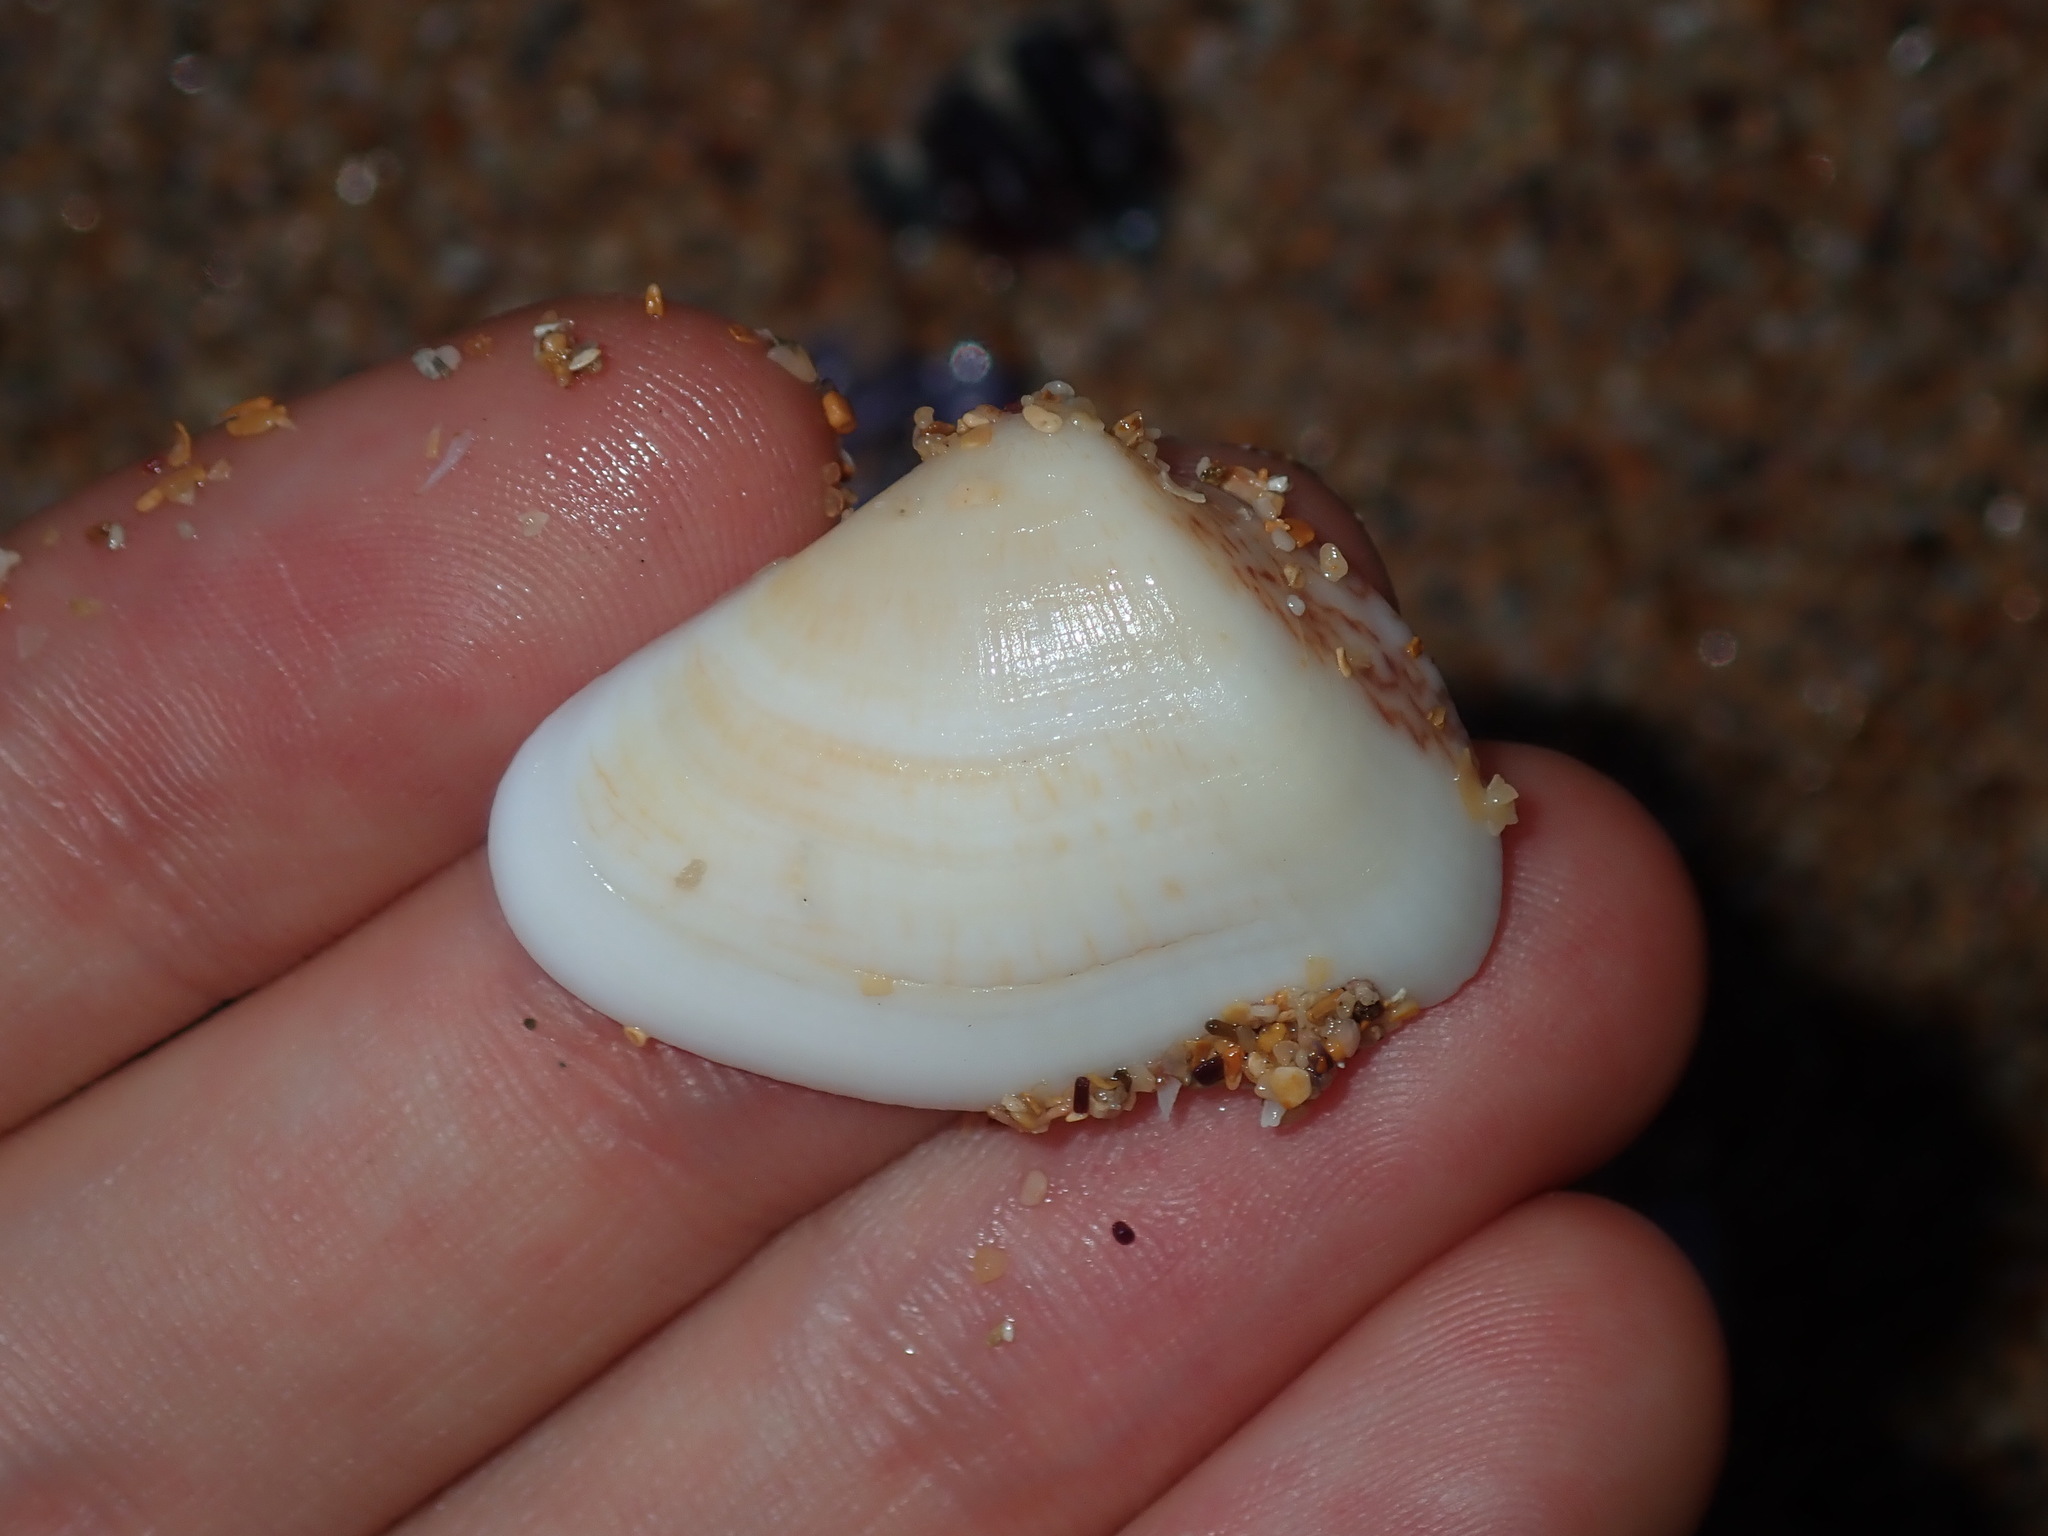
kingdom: Animalia
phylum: Mollusca
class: Bivalvia
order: Venerida
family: Hemidonacidae
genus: Hemidonax
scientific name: Hemidonax pictus
